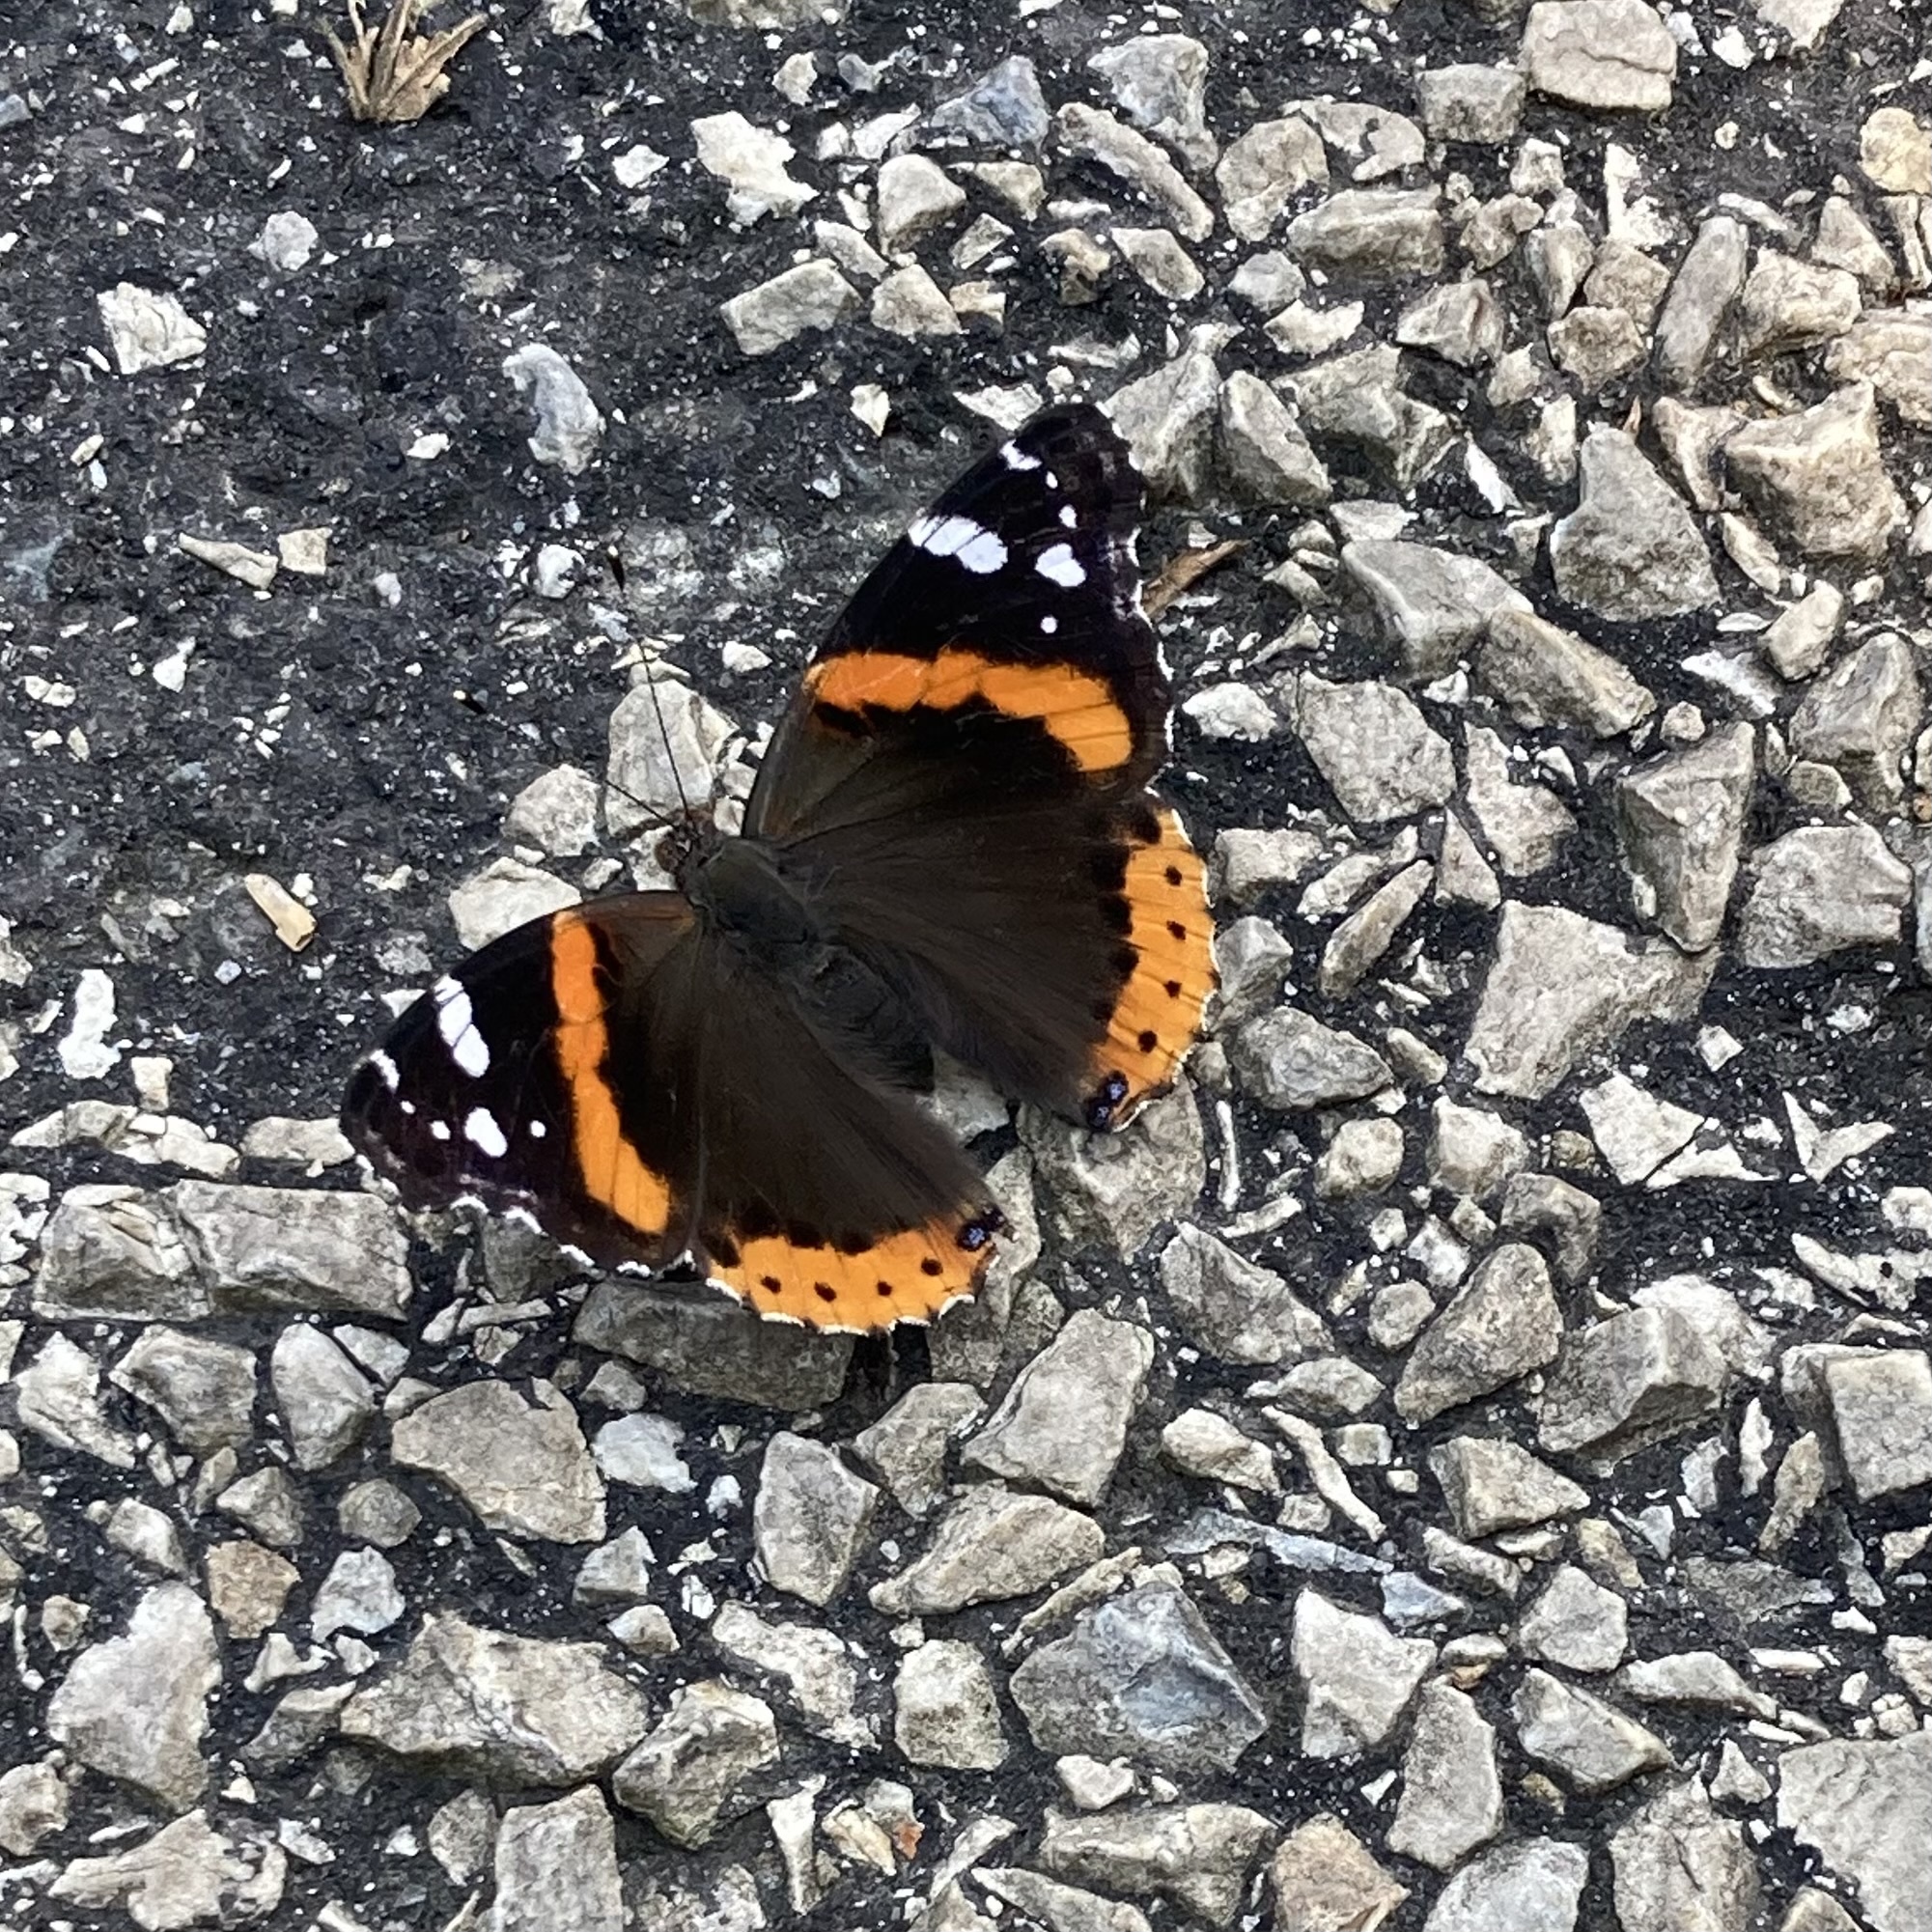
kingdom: Animalia
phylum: Arthropoda
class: Insecta
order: Lepidoptera
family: Nymphalidae
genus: Vanessa
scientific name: Vanessa atalanta
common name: Red admiral
